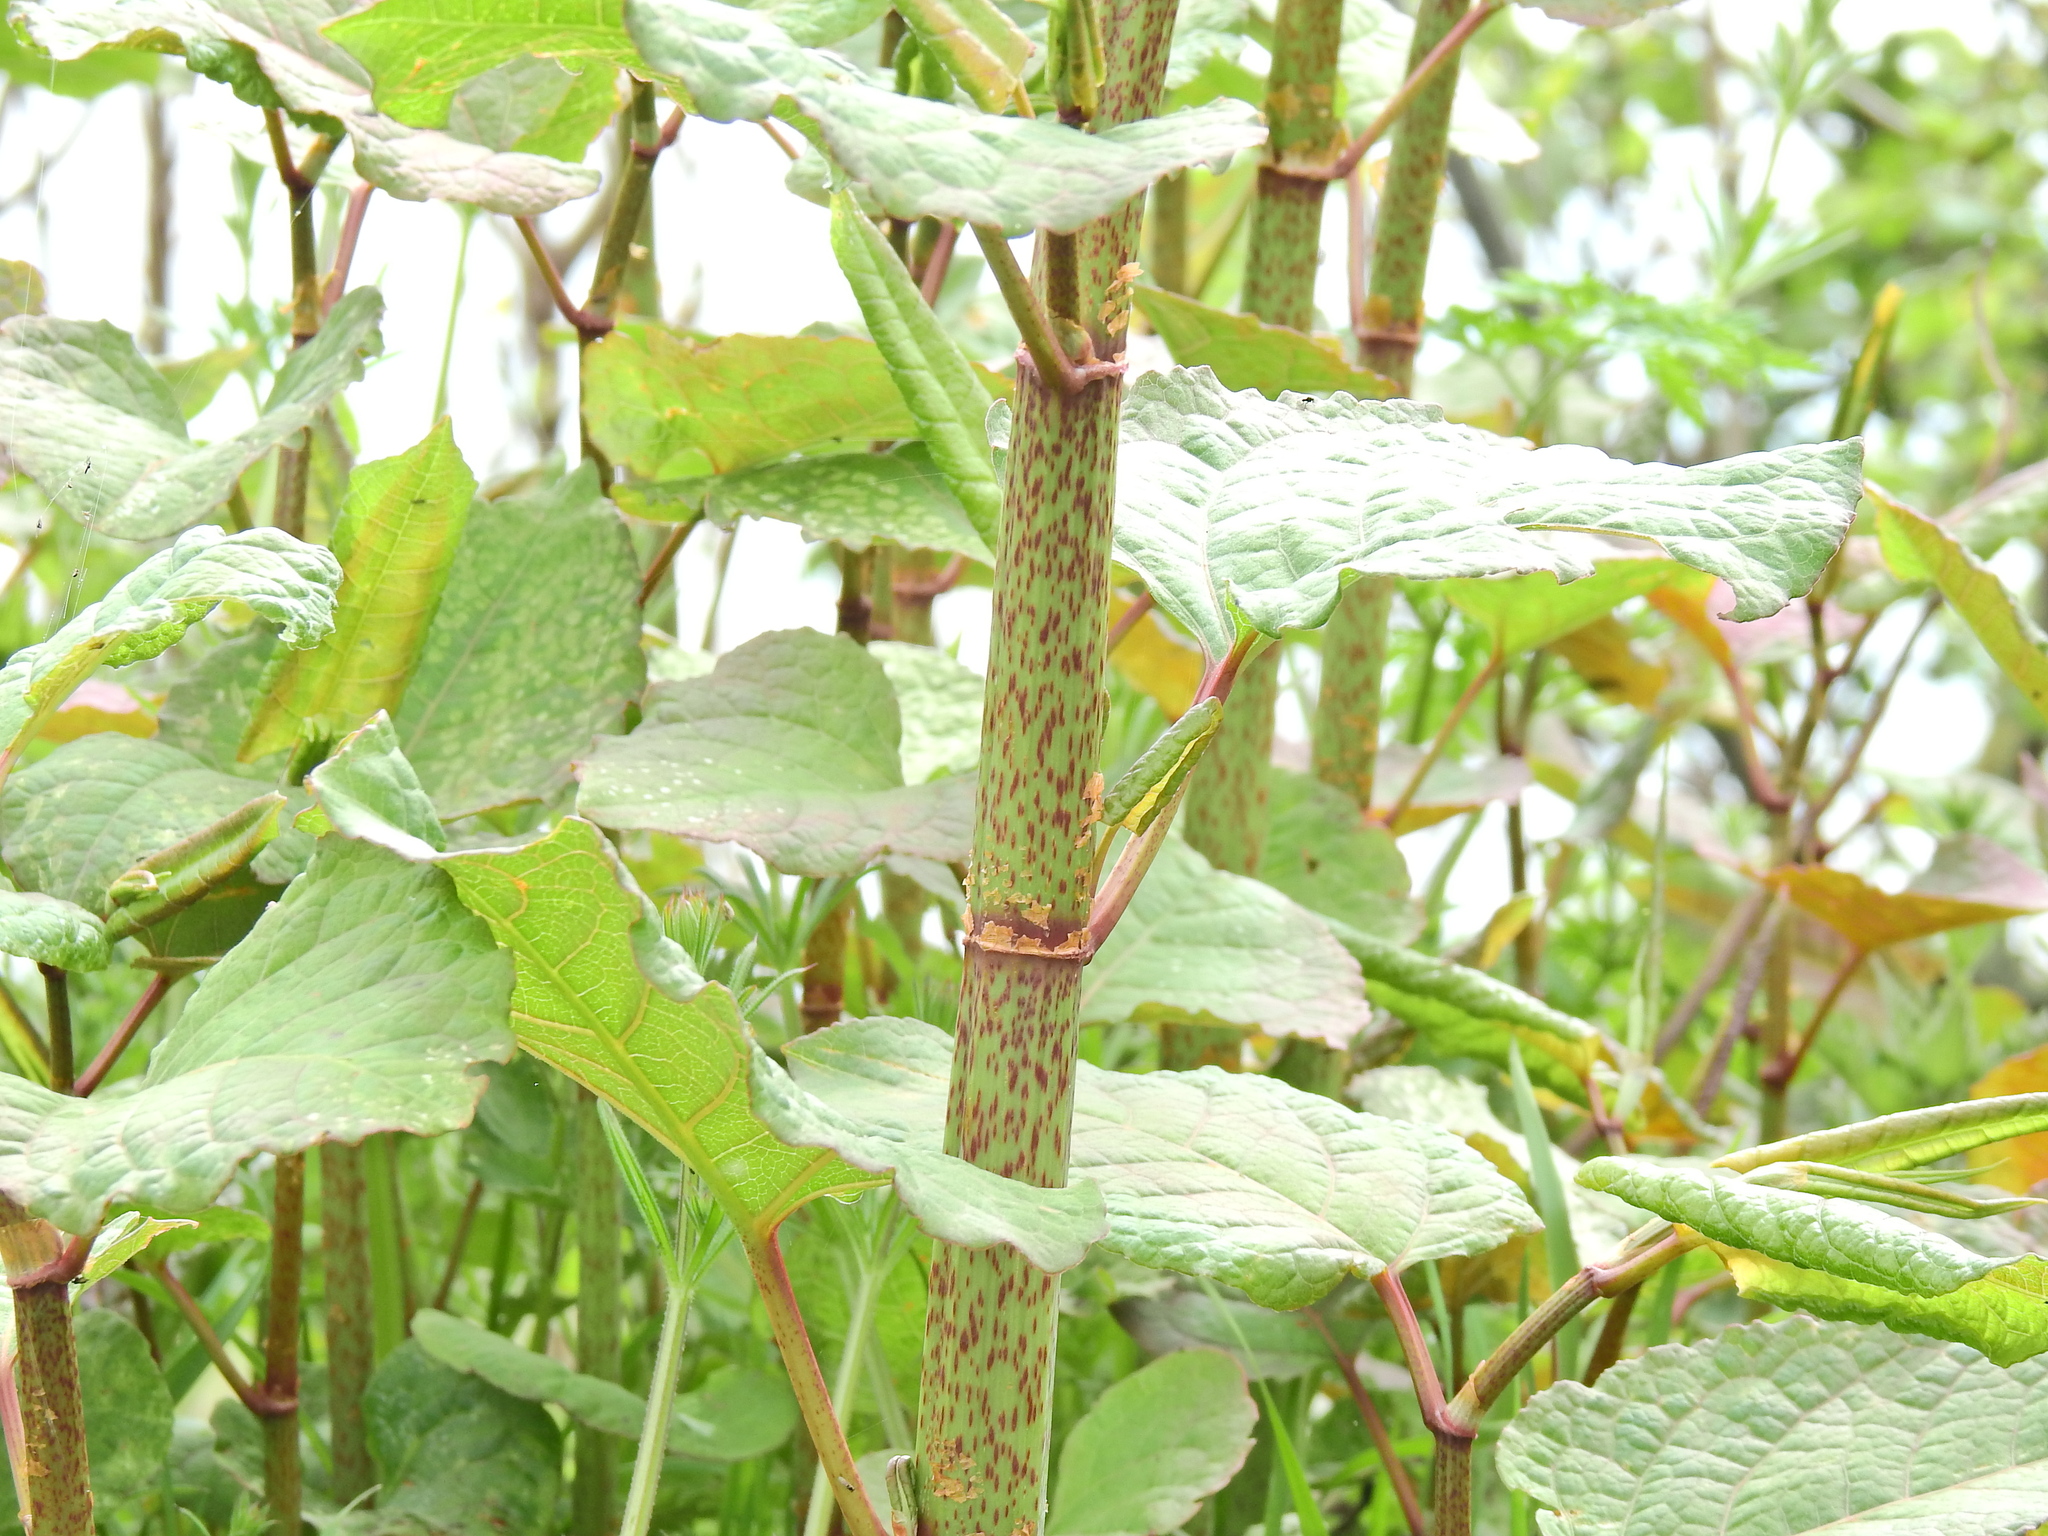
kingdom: Plantae
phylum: Tracheophyta
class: Magnoliopsida
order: Caryophyllales
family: Polygonaceae
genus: Reynoutria
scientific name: Reynoutria japonica
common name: Japanese knotweed
